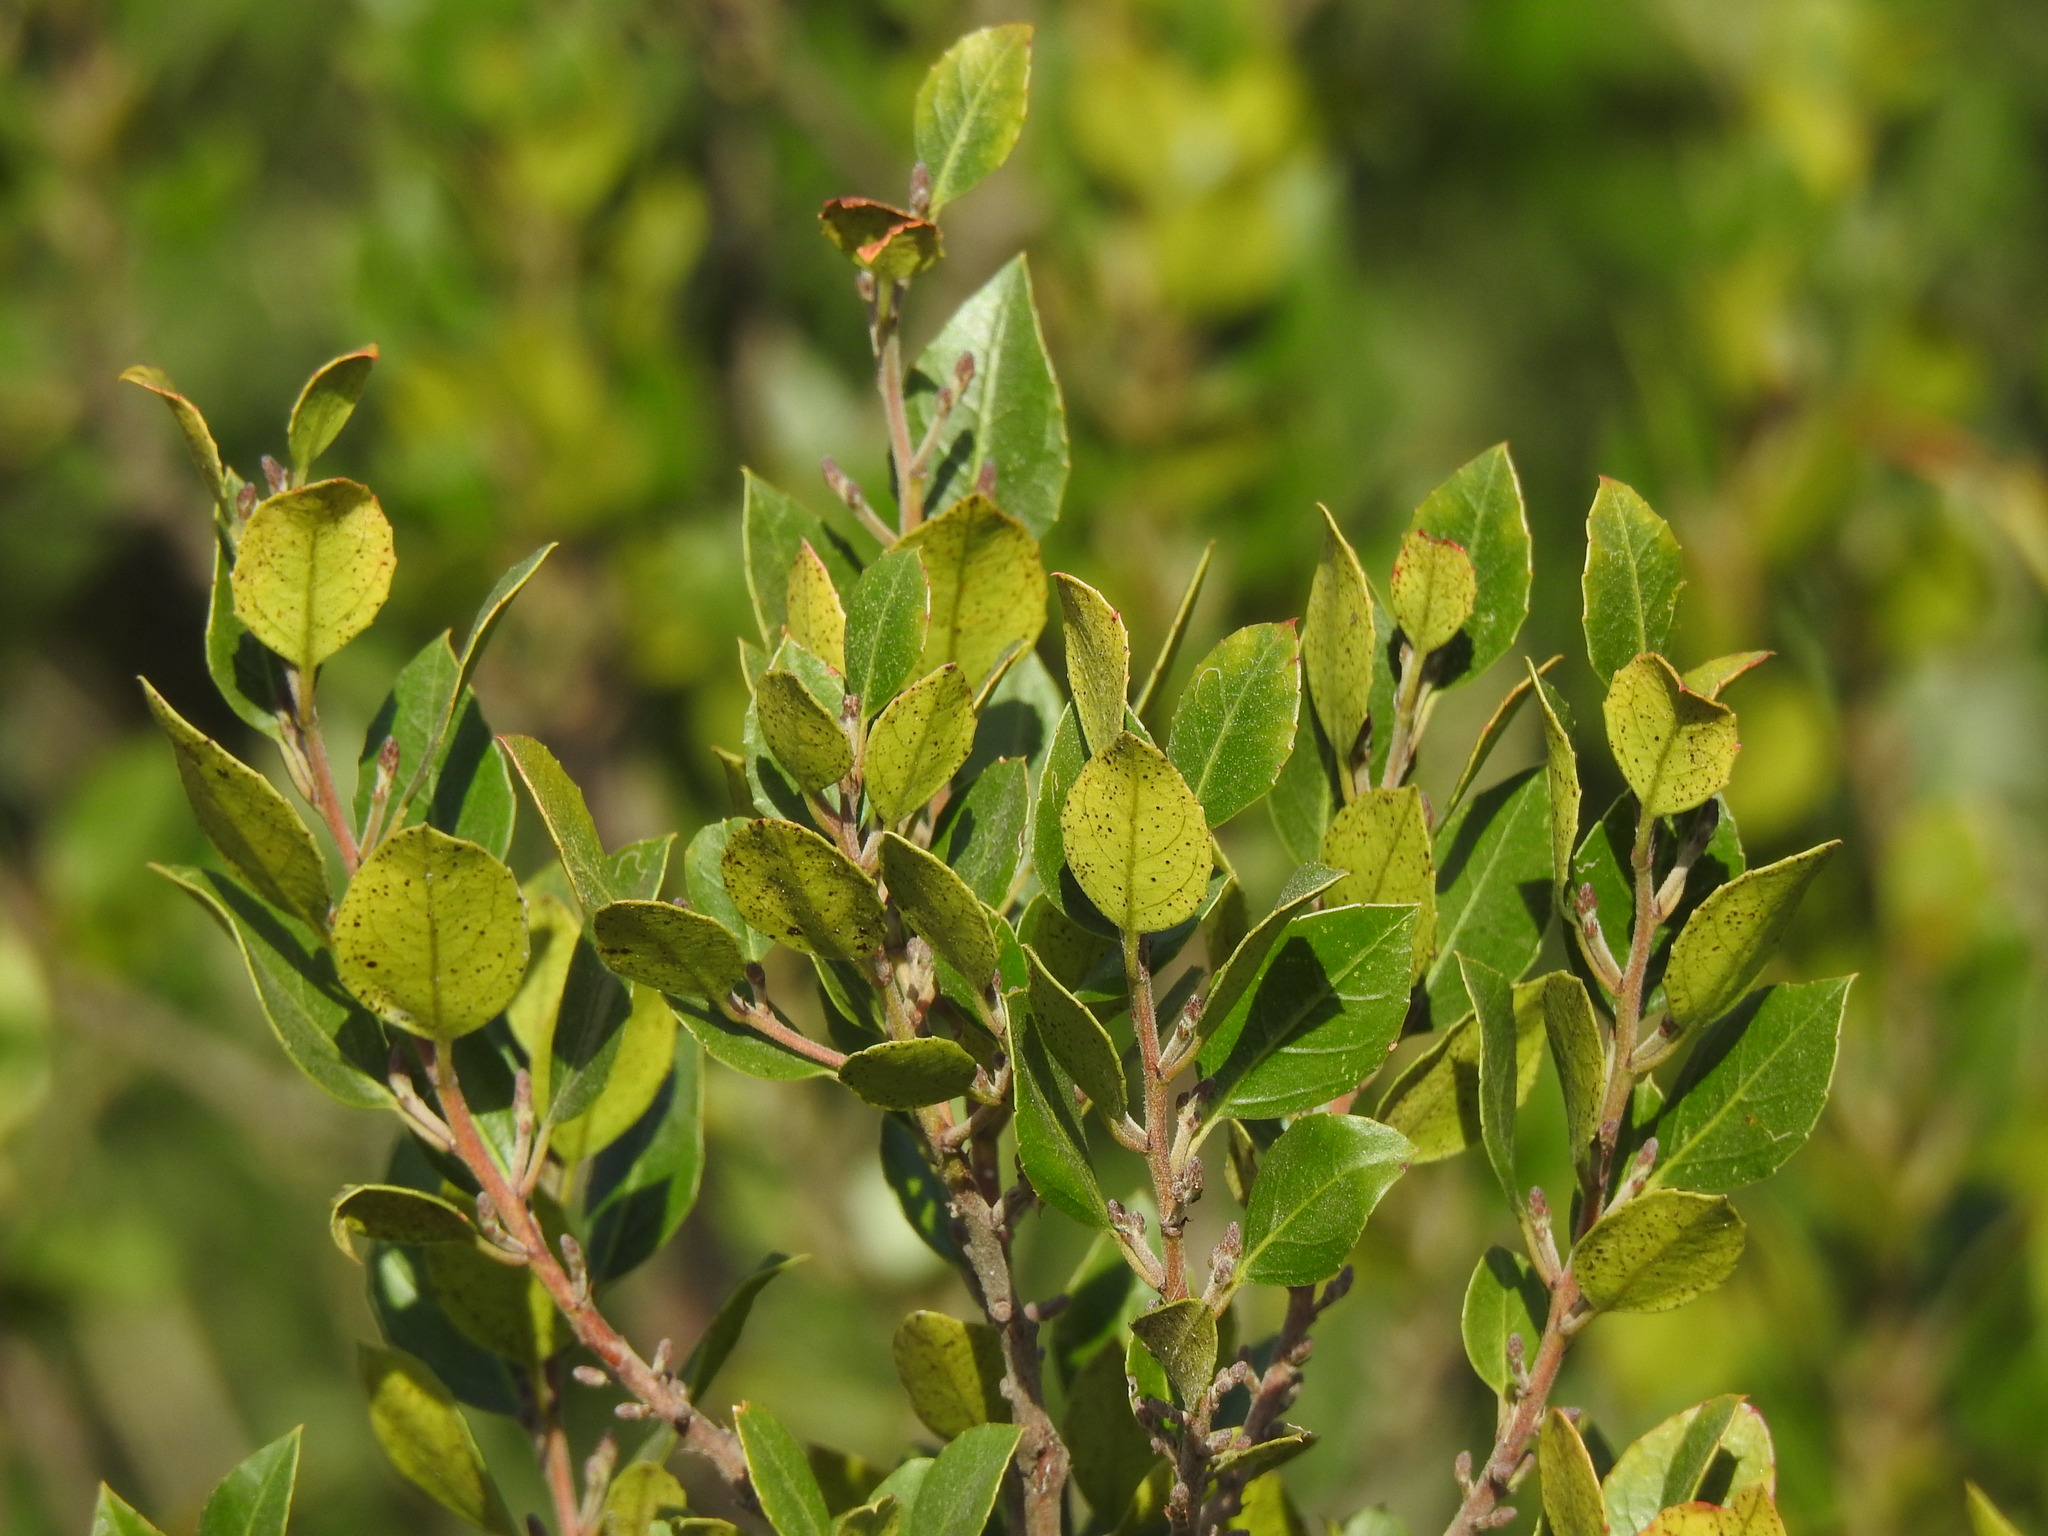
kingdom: Plantae
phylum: Tracheophyta
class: Magnoliopsida
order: Rosales
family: Rhamnaceae
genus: Rhamnus
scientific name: Rhamnus alaternus
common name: Mediterranean buckthorn
